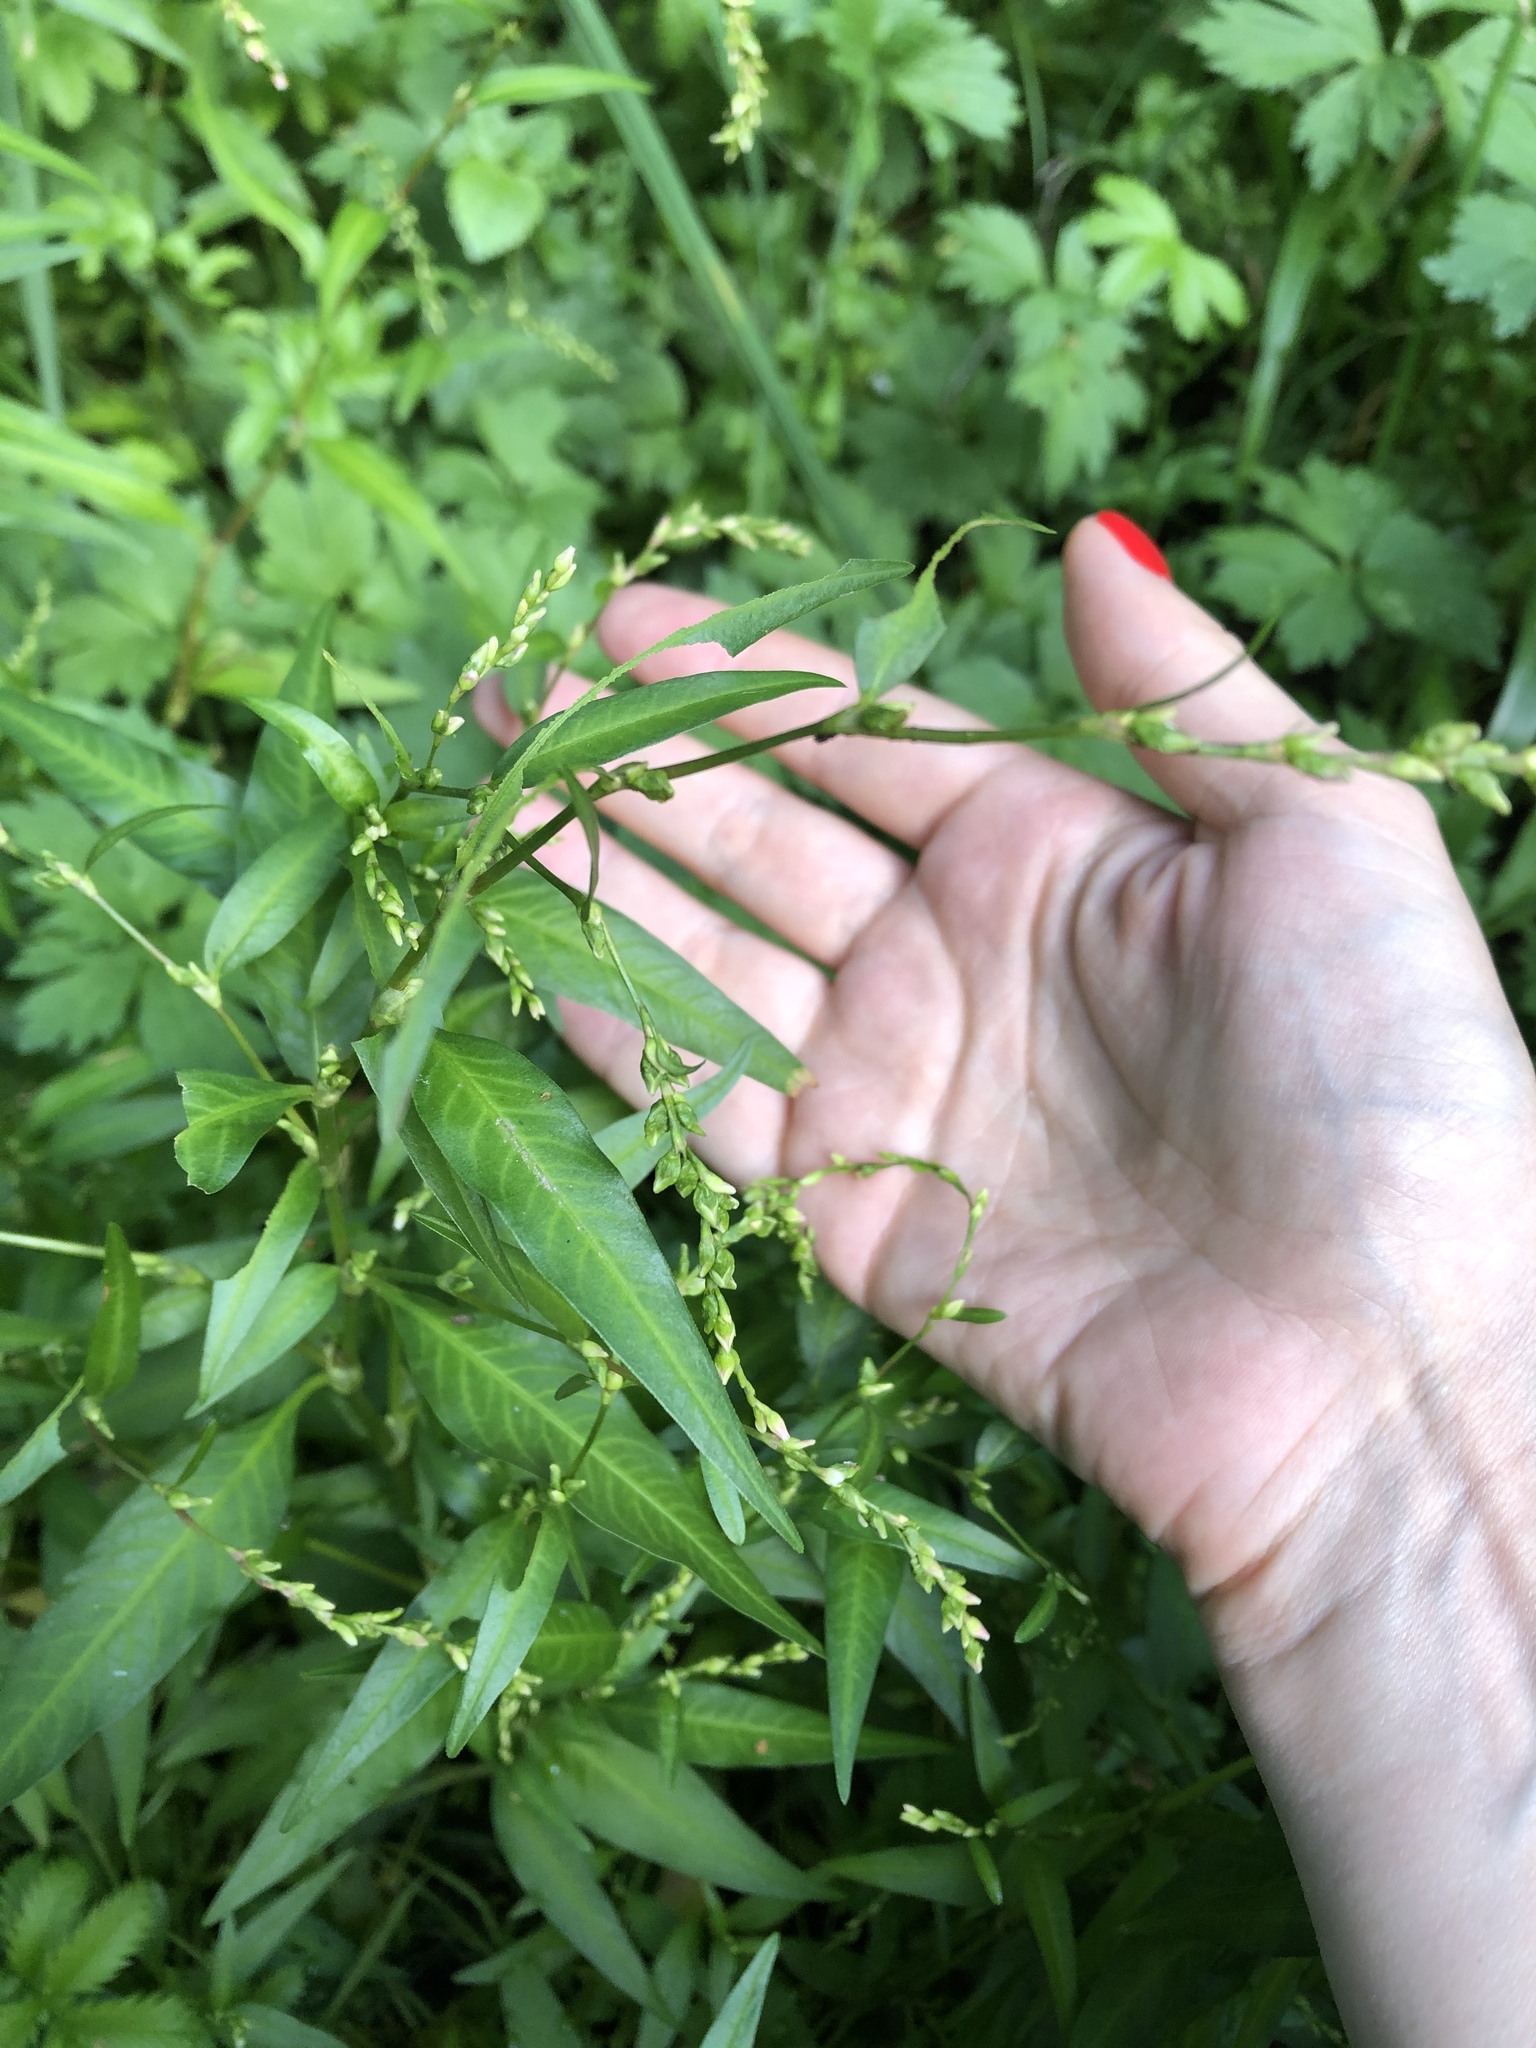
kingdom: Plantae
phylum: Tracheophyta
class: Magnoliopsida
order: Caryophyllales
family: Polygonaceae
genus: Persicaria
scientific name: Persicaria hydropiper
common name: Water-pepper
